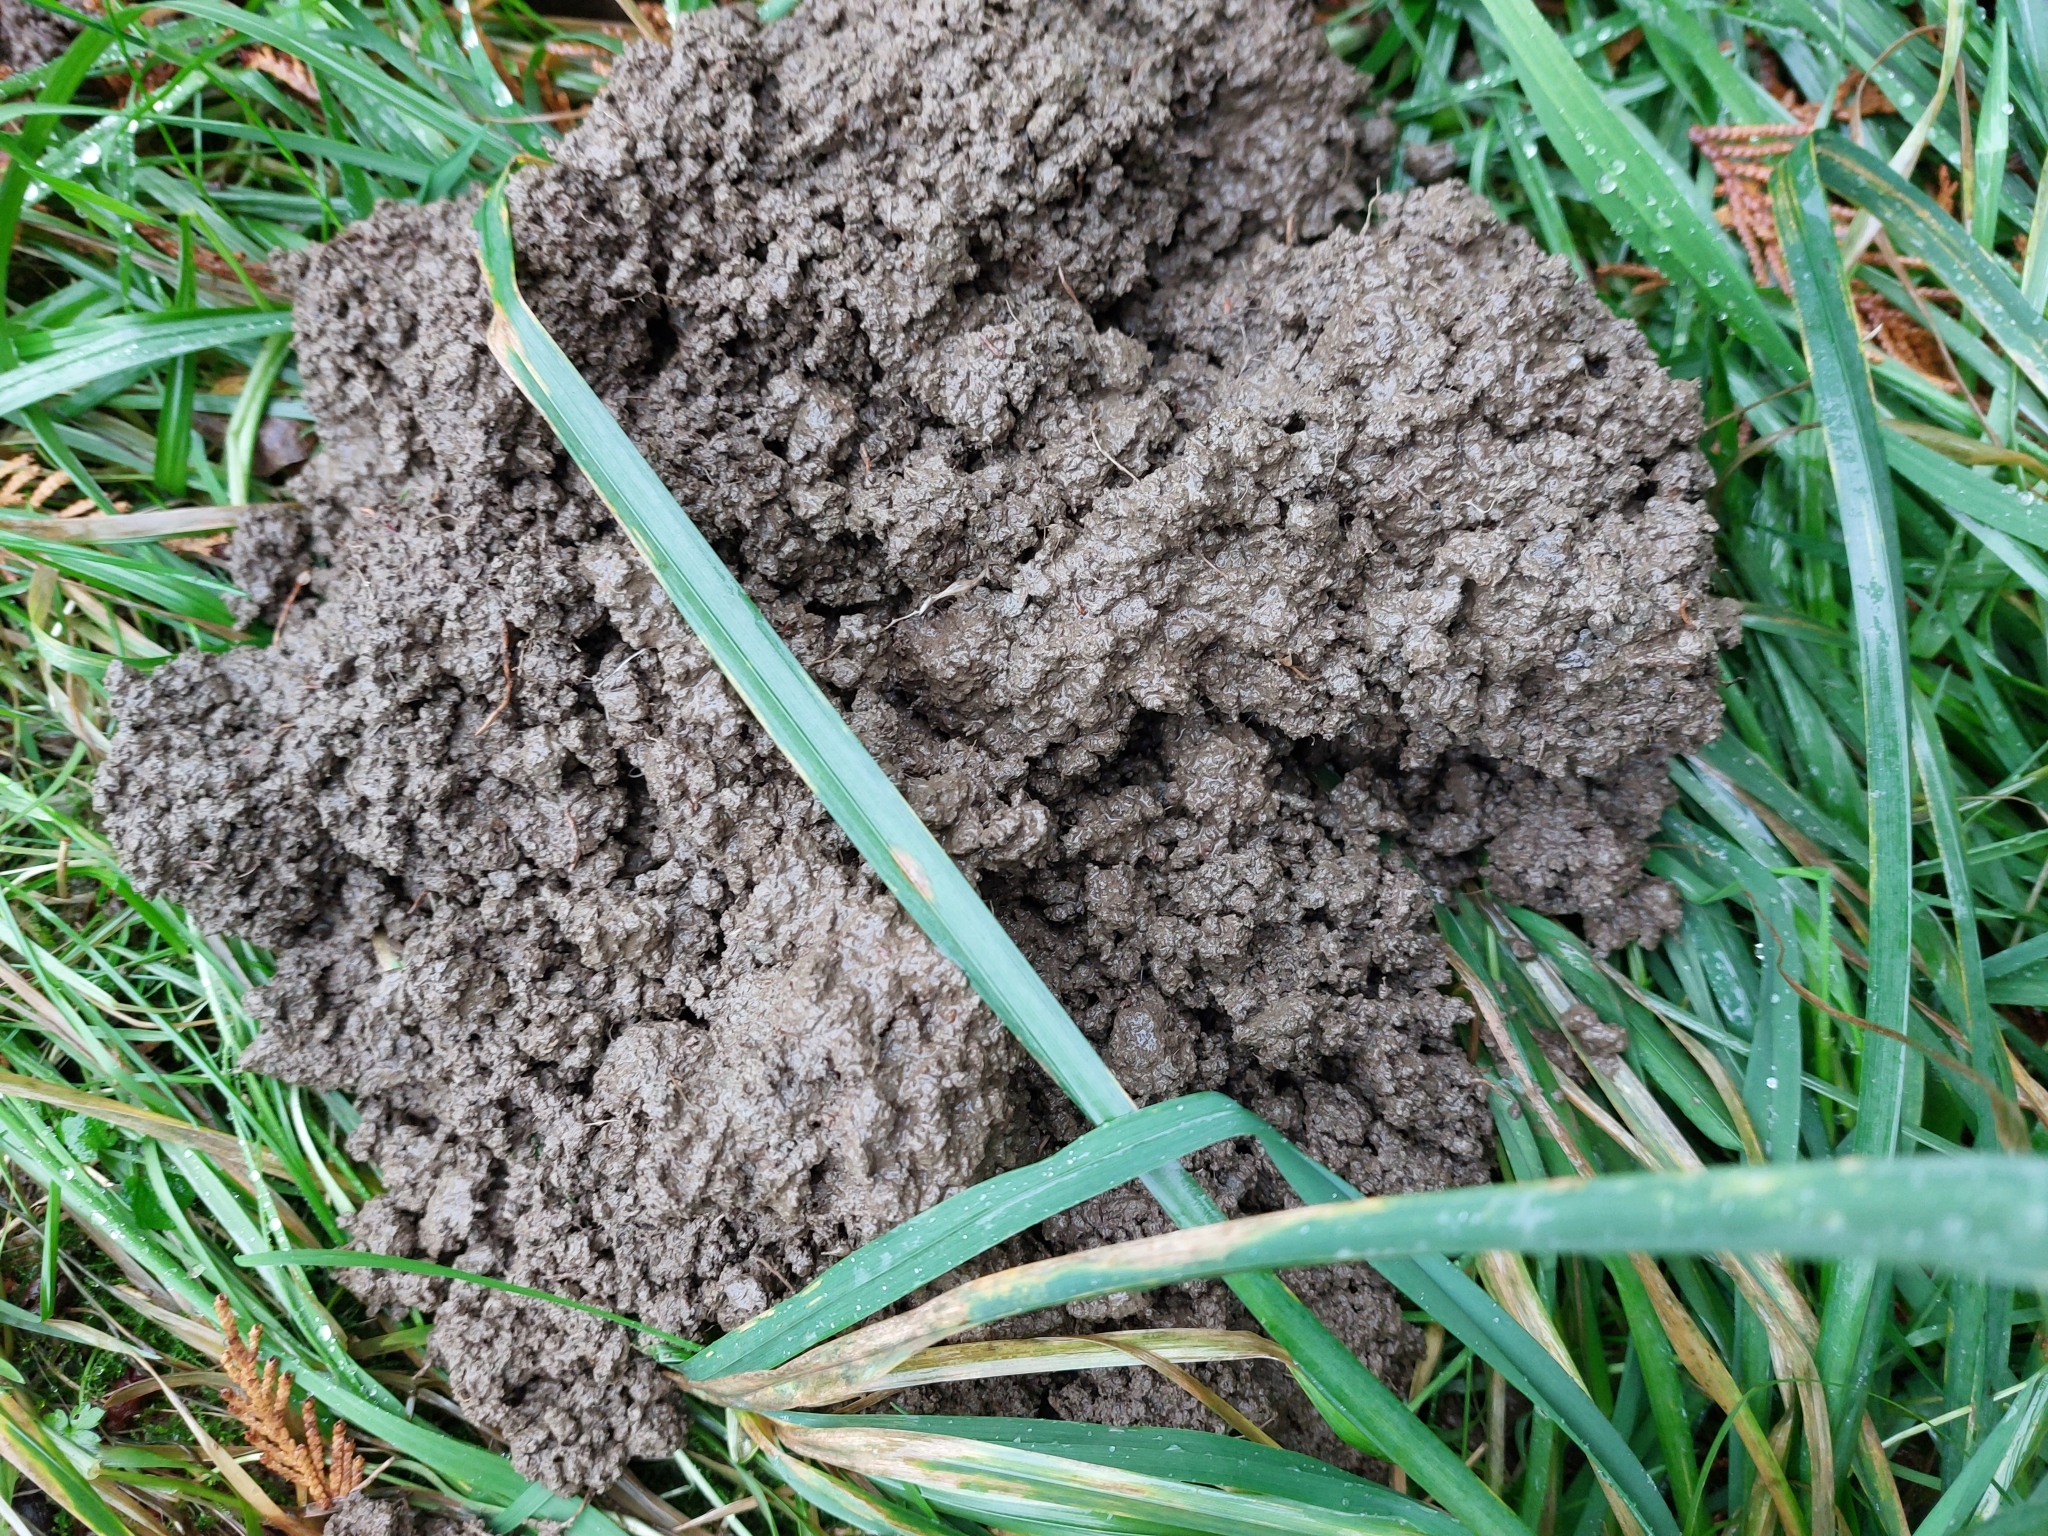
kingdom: Animalia
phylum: Chordata
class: Mammalia
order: Soricomorpha
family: Talpidae
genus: Talpa
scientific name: Talpa europaea
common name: European mole
